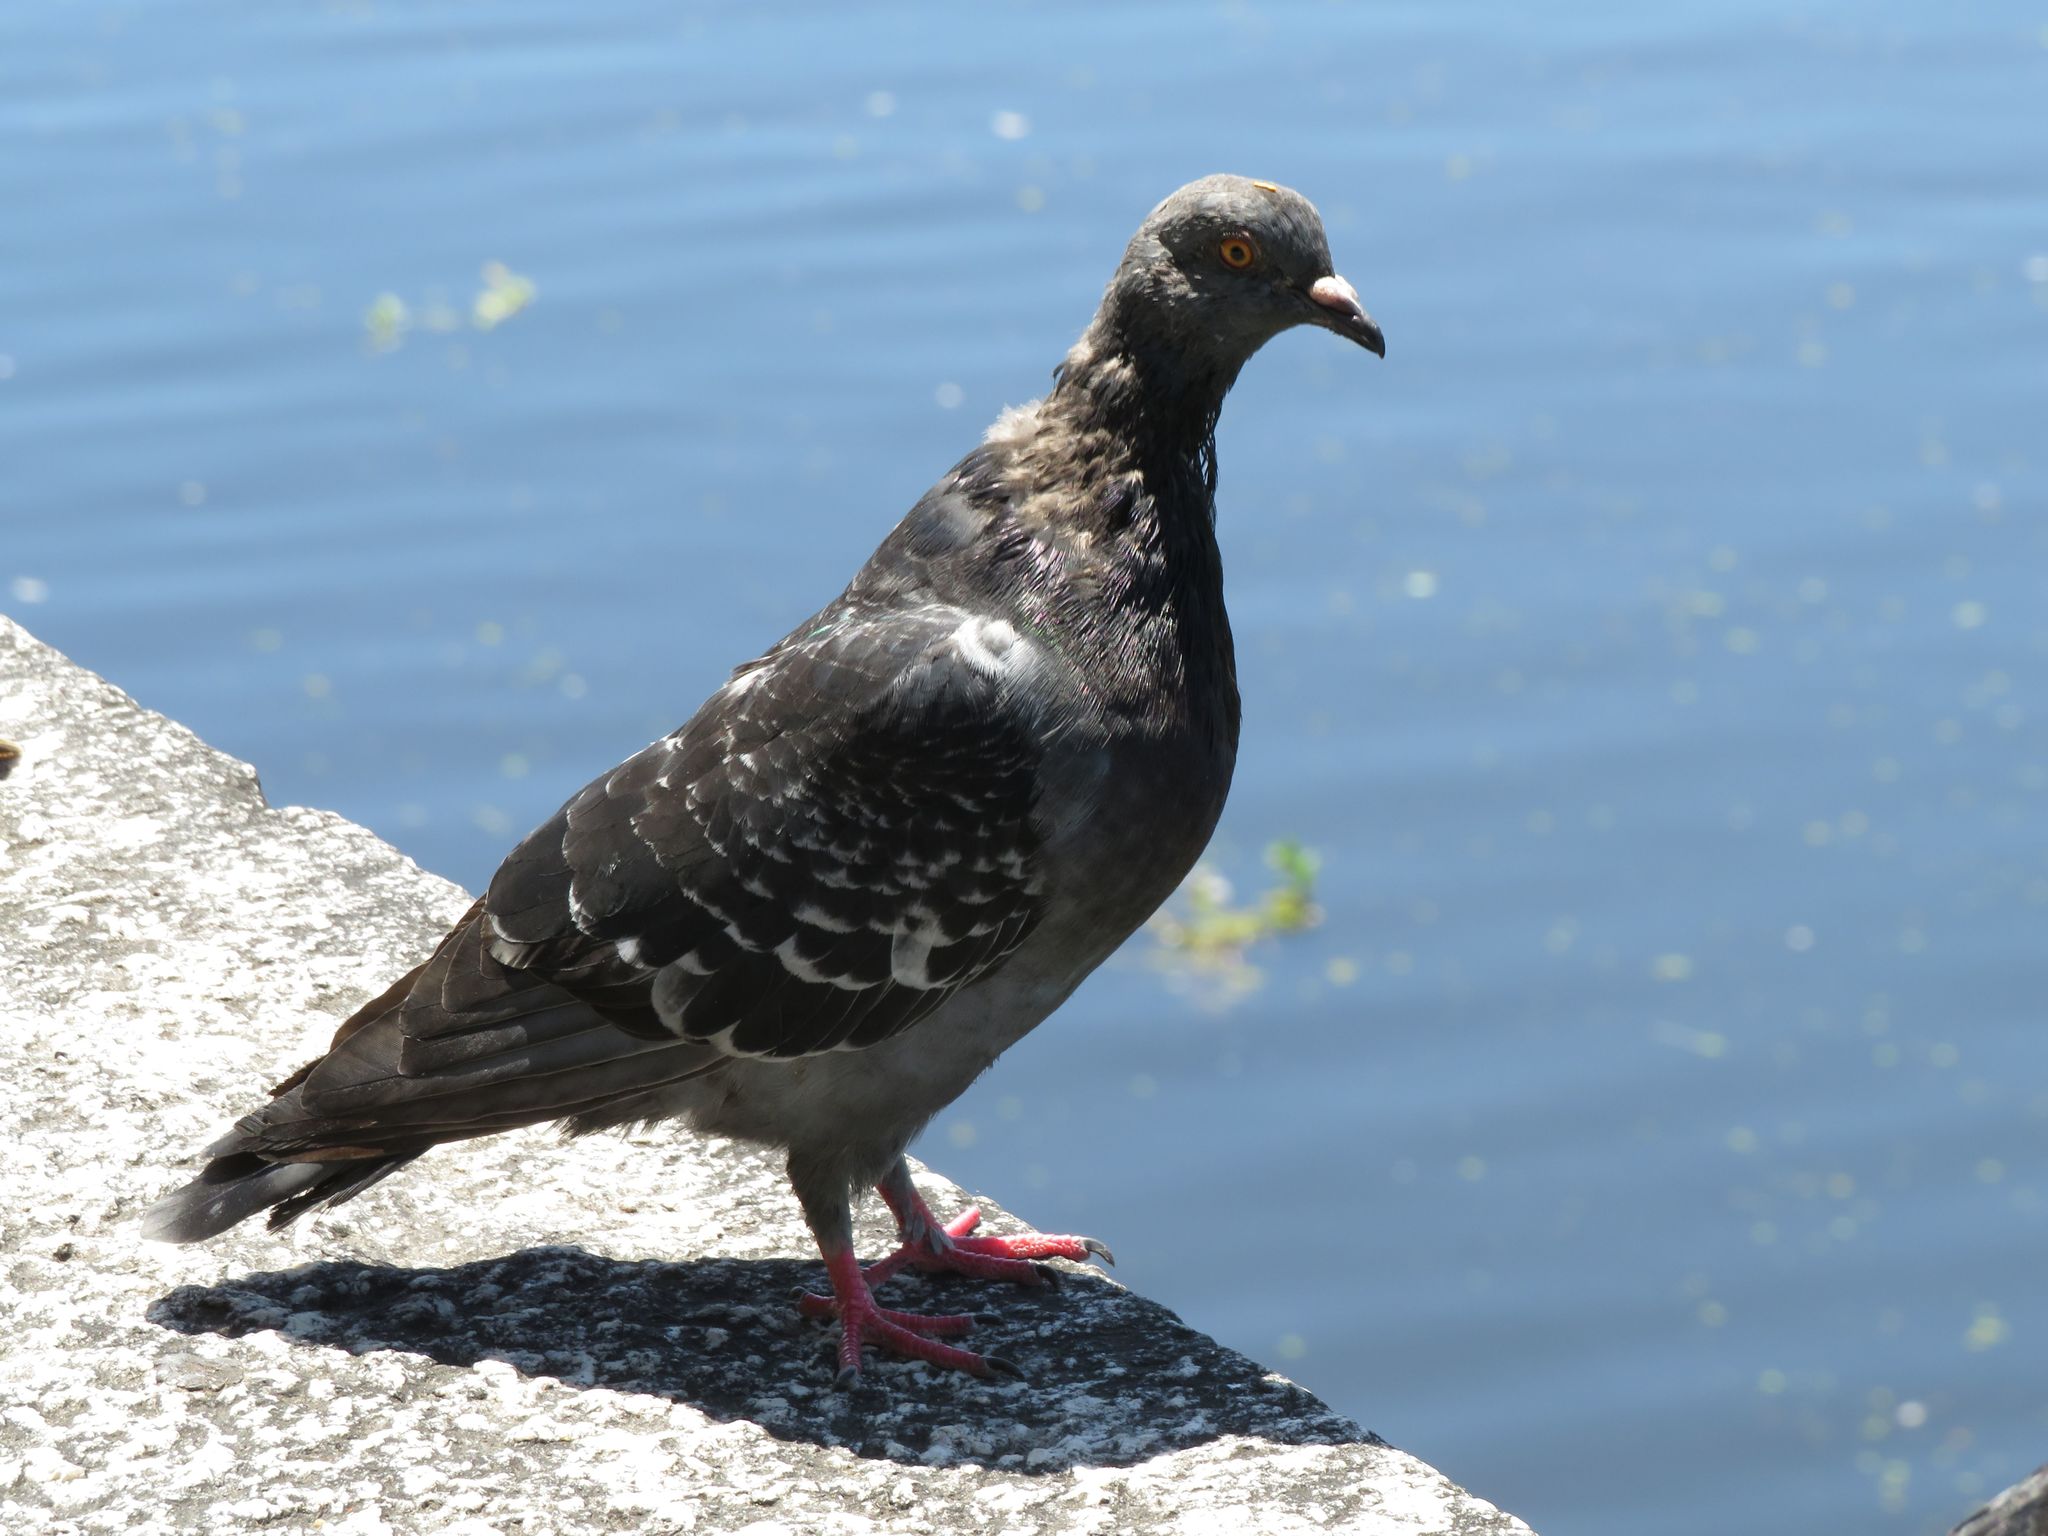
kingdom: Animalia
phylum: Chordata
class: Aves
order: Columbiformes
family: Columbidae
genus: Columba
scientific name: Columba livia
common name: Rock pigeon
